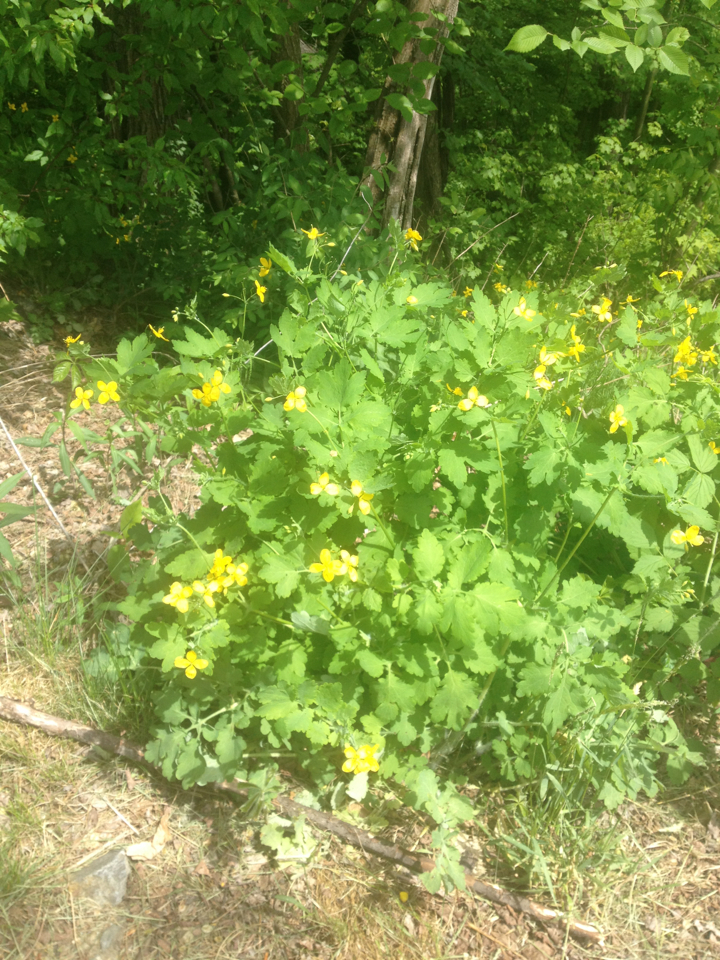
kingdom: Plantae
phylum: Tracheophyta
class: Magnoliopsida
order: Ranunculales
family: Papaveraceae
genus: Chelidonium
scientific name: Chelidonium majus
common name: Greater celandine
